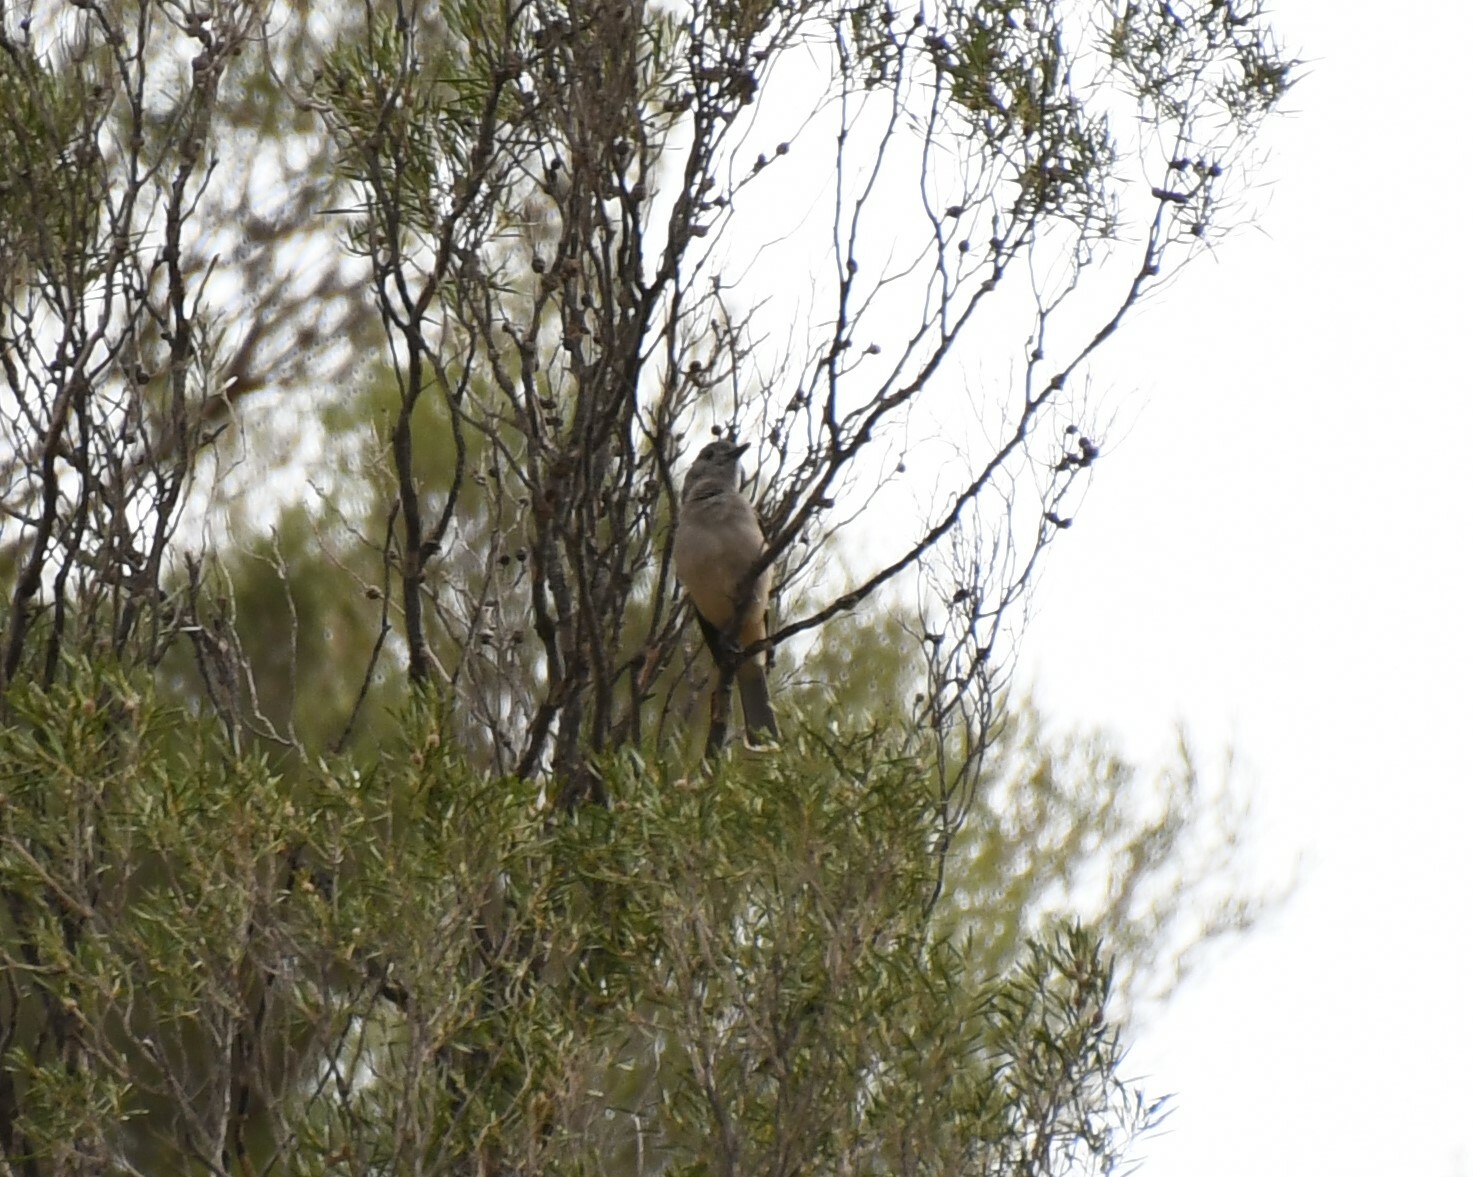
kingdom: Animalia
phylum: Chordata
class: Aves
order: Passeriformes
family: Pachycephalidae
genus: Colluricincla
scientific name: Colluricincla harmonica
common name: Grey shrikethrush
